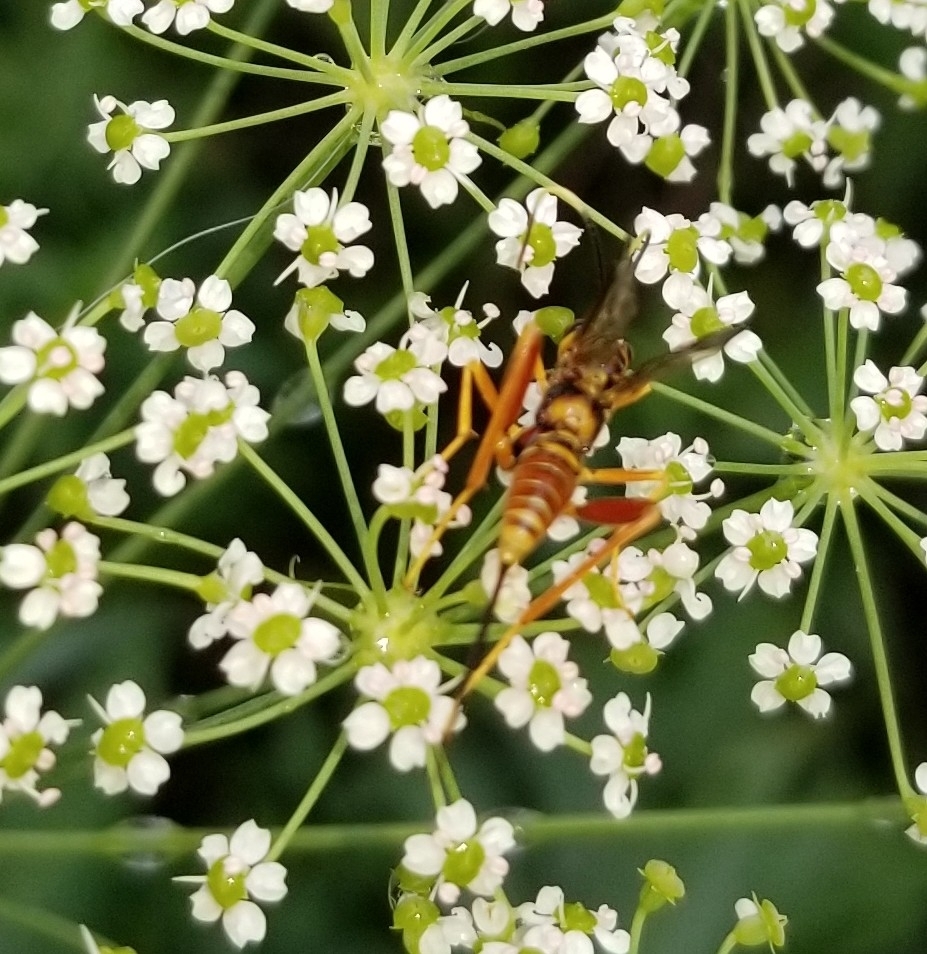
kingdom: Animalia
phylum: Arthropoda
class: Insecta
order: Hymenoptera
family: Ichneumonidae
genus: Spilopteron
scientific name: Spilopteron vicinum
